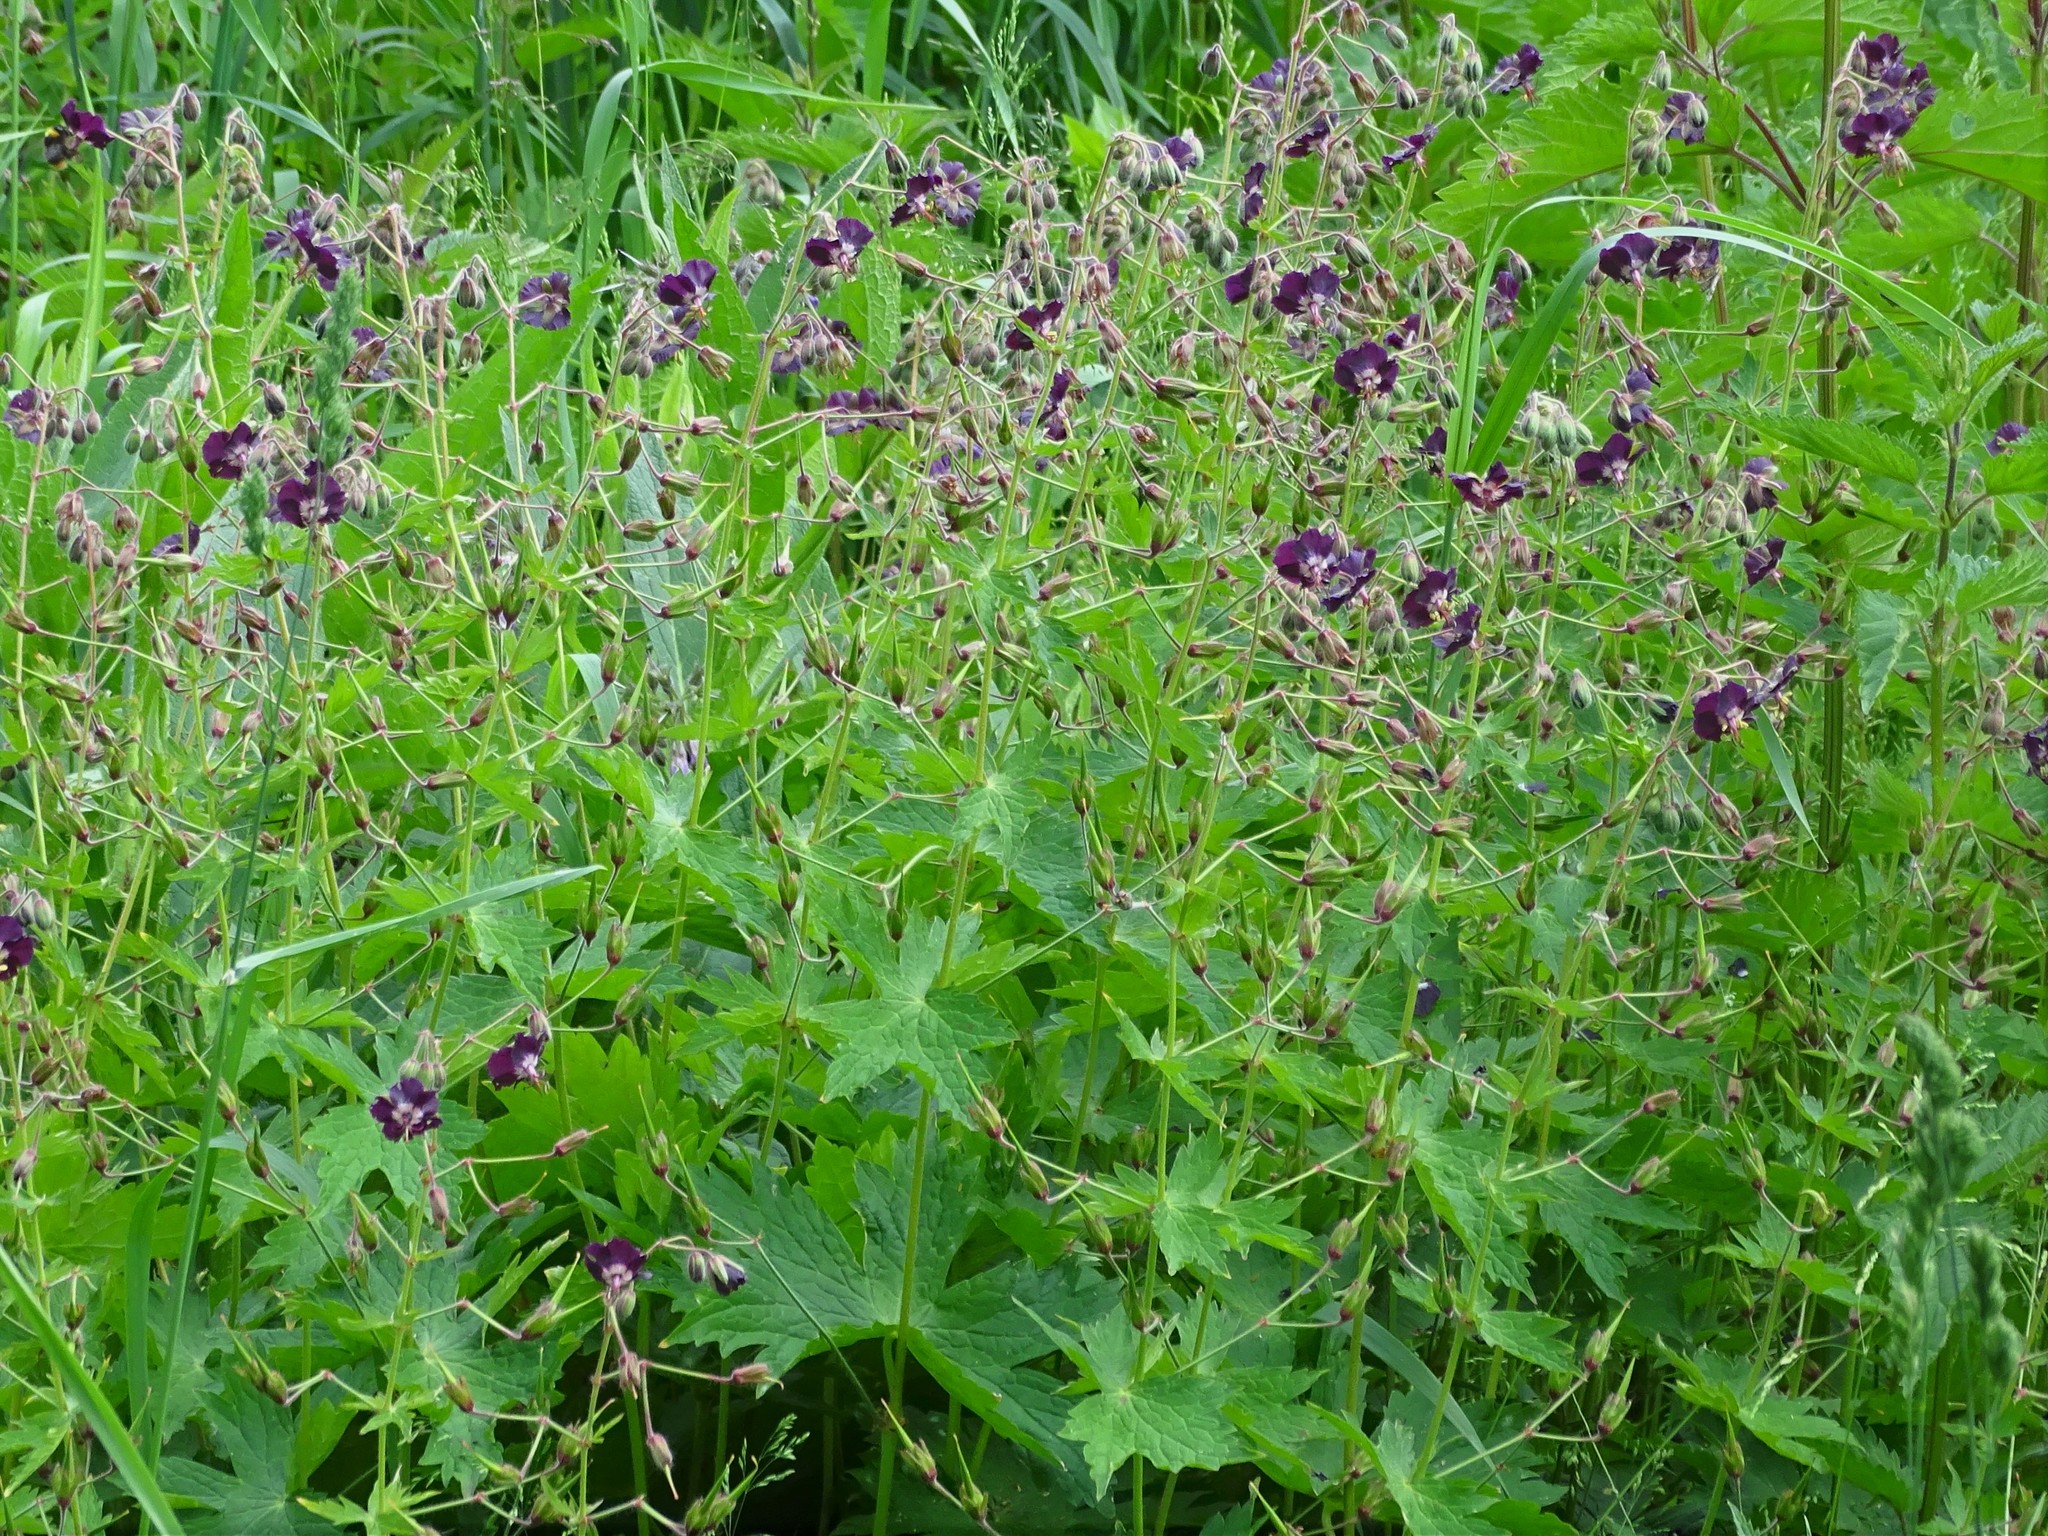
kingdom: Plantae
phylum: Tracheophyta
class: Magnoliopsida
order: Geraniales
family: Geraniaceae
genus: Geranium
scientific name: Geranium phaeum
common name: Dusky crane's-bill
